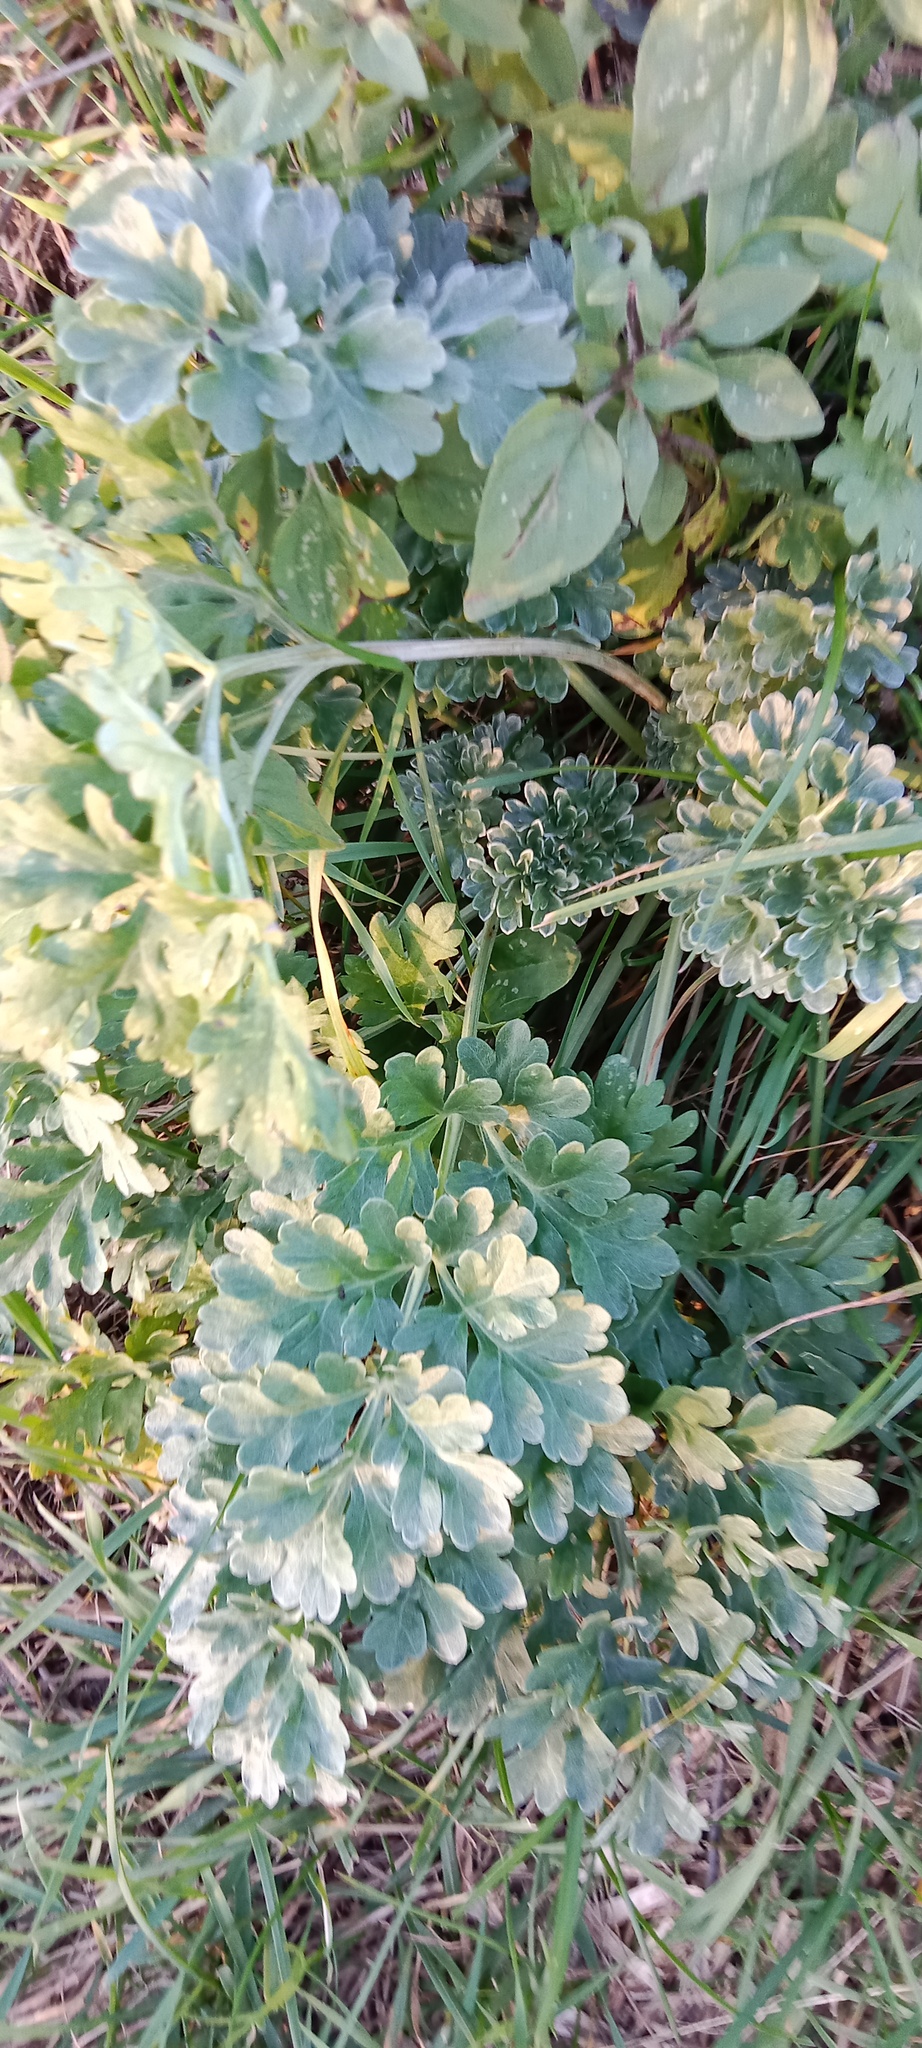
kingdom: Plantae
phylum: Tracheophyta
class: Magnoliopsida
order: Asterales
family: Asteraceae
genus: Artemisia
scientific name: Artemisia absinthium
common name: Wormwood
